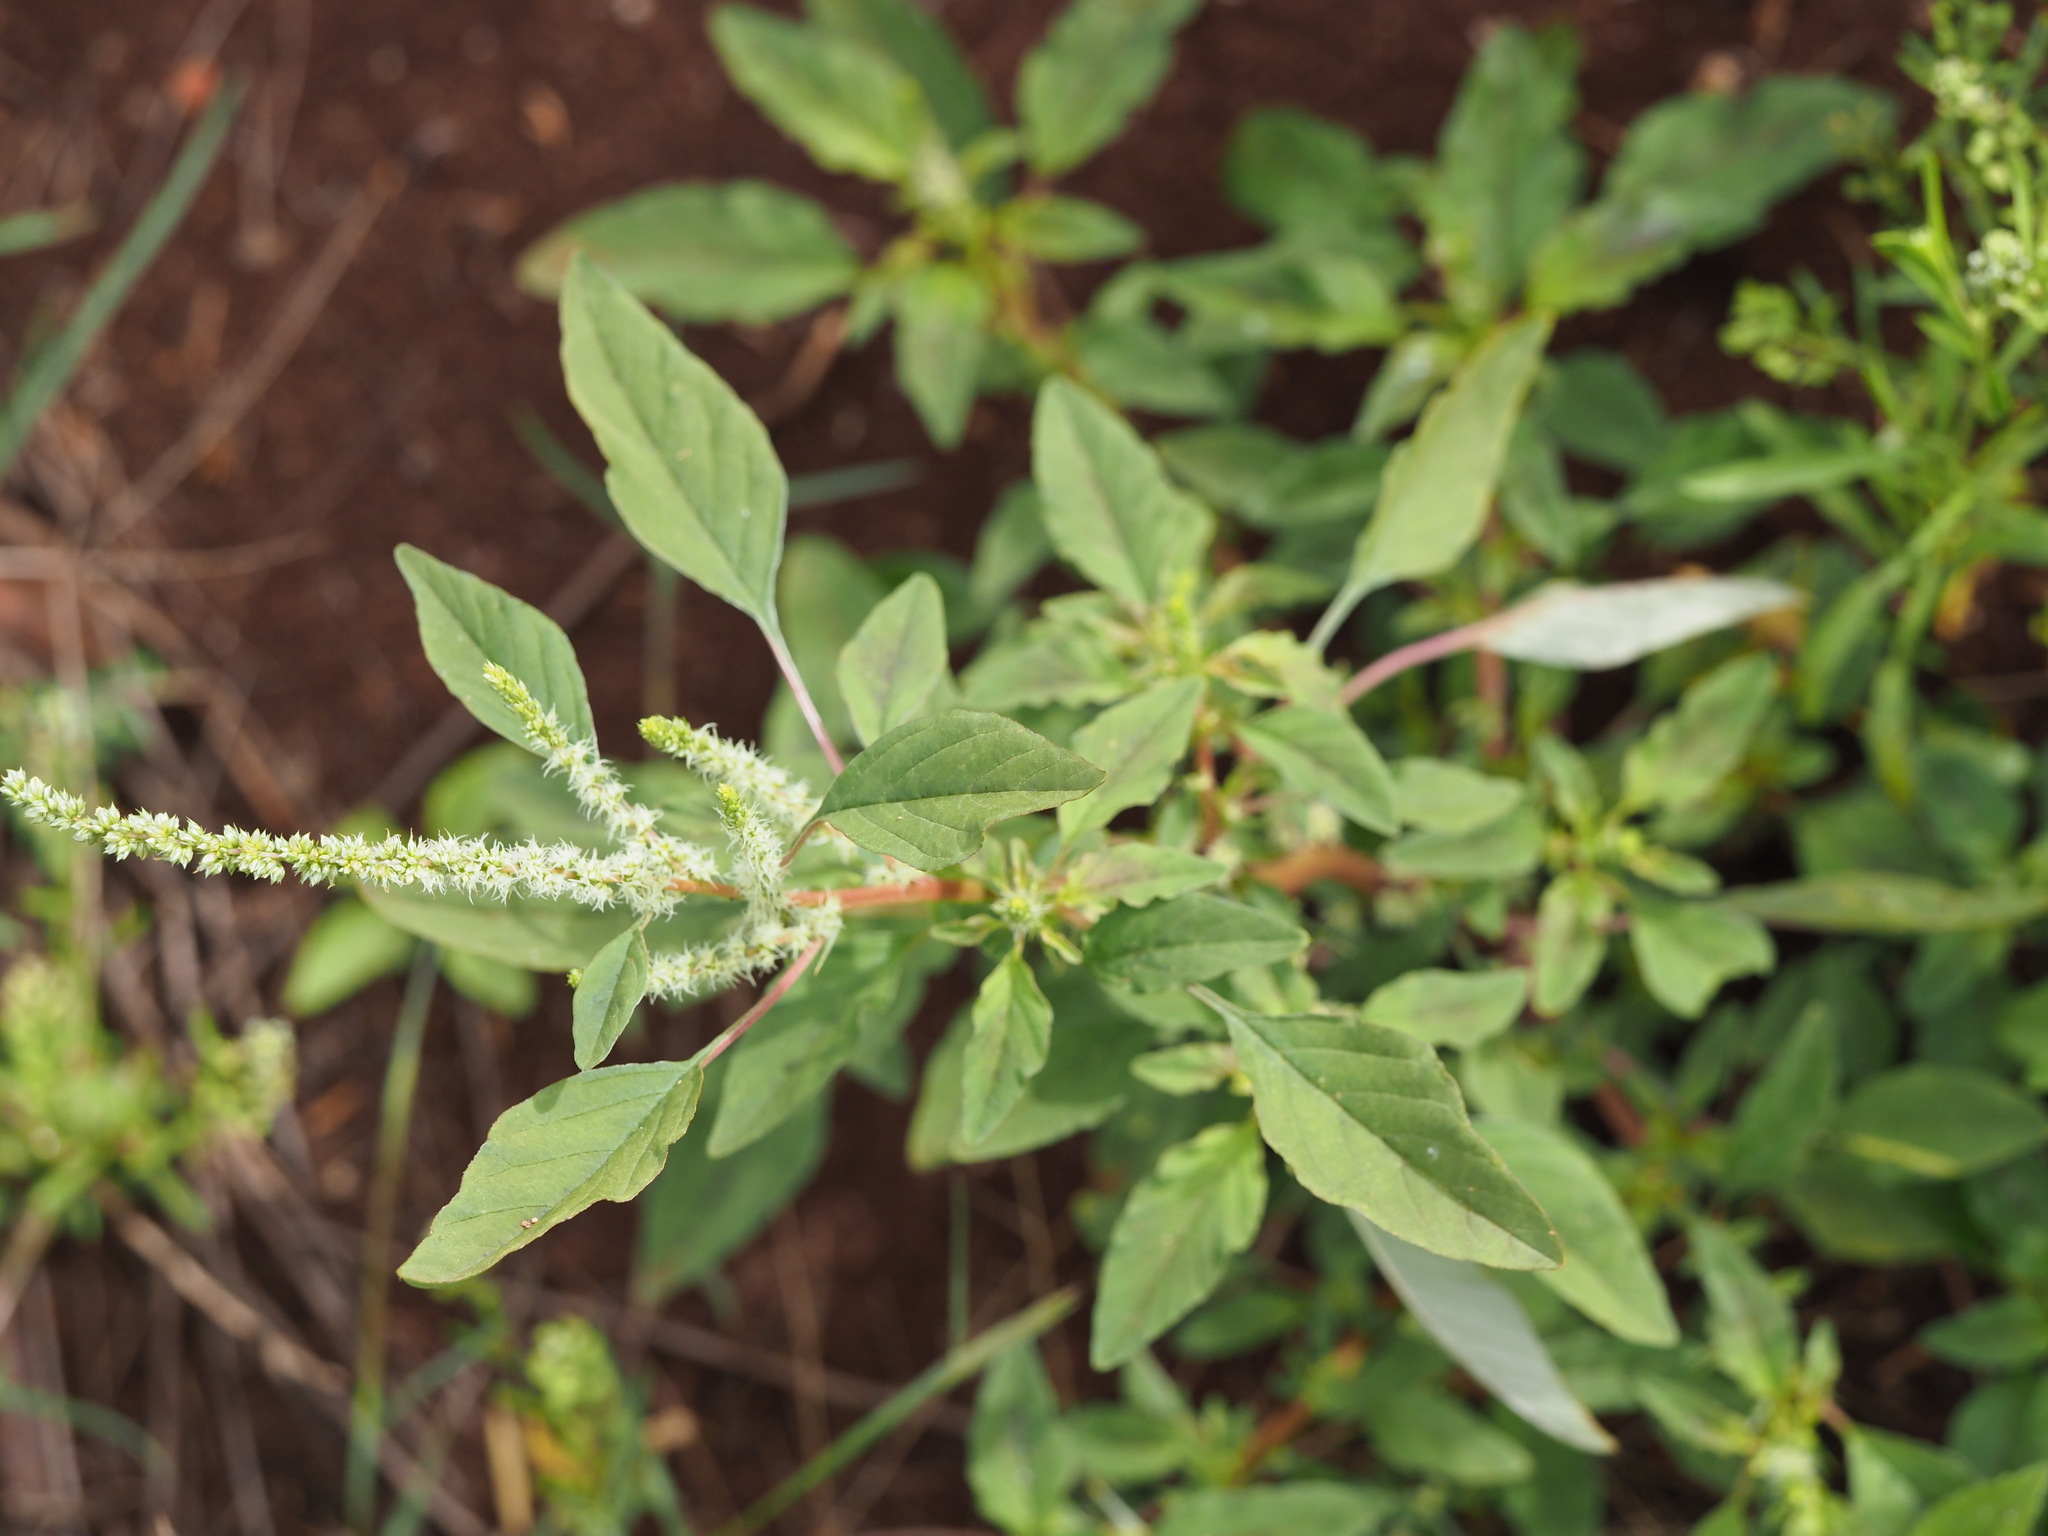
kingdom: Plantae
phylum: Tracheophyta
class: Magnoliopsida
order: Caryophyllales
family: Amaranthaceae
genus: Amaranthus
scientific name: Amaranthus spinosus
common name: Spiny amaranth
